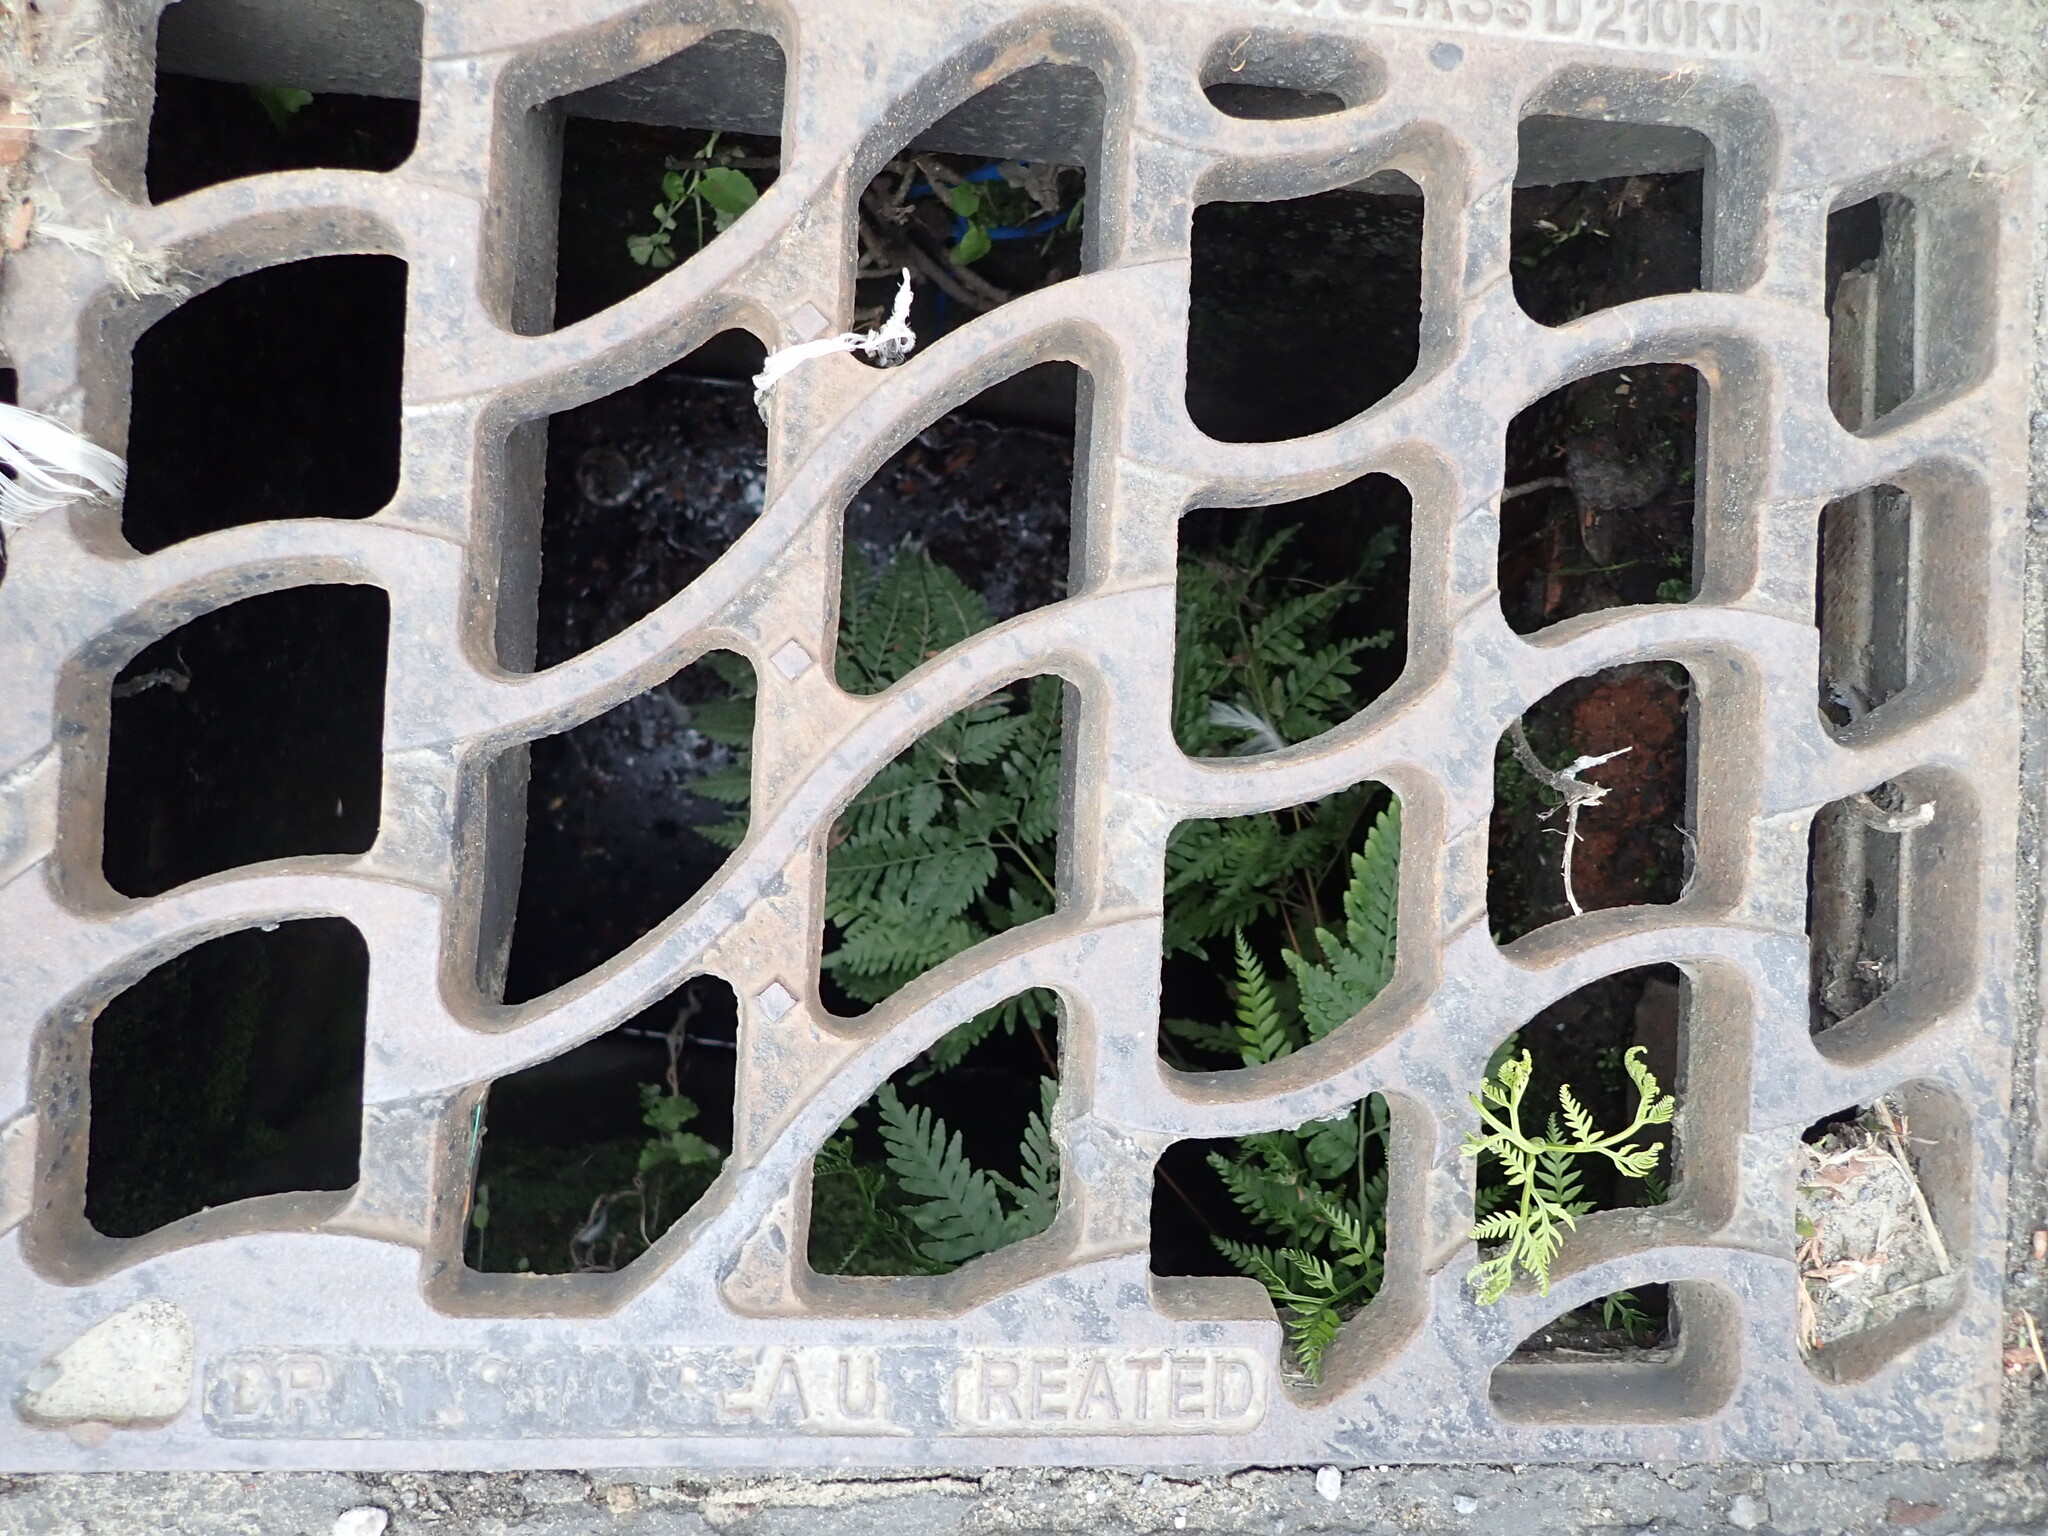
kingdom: Plantae
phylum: Tracheophyta
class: Polypodiopsida
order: Polypodiales
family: Pteridaceae
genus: Pteris
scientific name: Pteris tremula
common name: Australian brake
